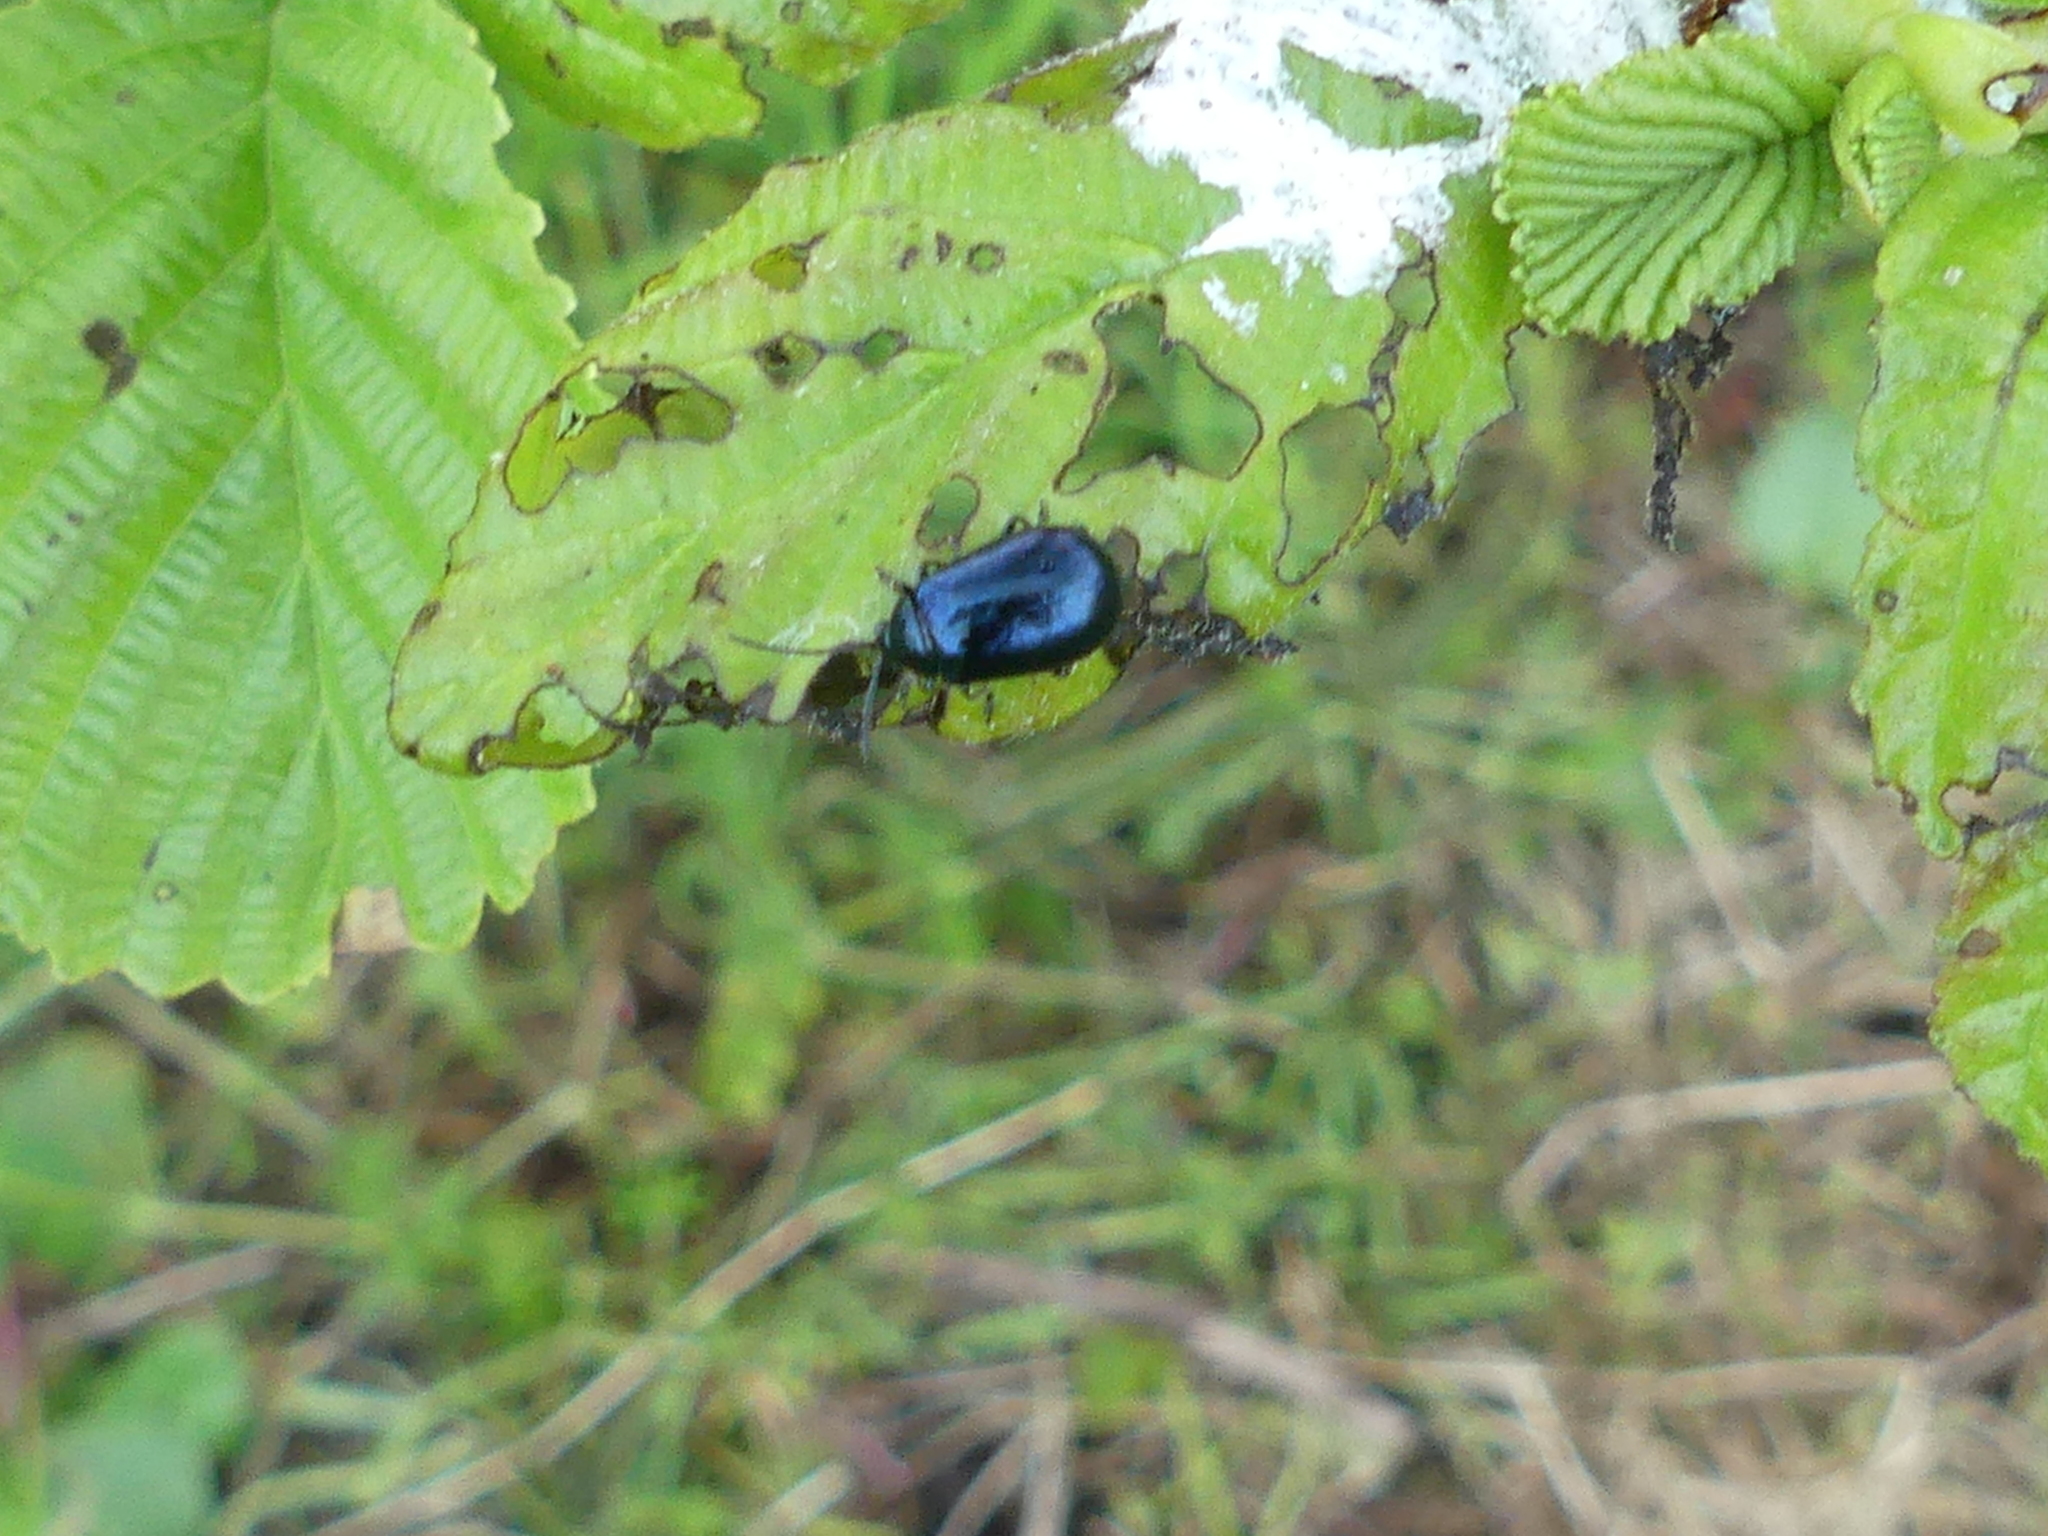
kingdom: Animalia
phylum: Arthropoda
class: Insecta
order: Coleoptera
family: Chrysomelidae
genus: Agelastica
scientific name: Agelastica alni
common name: Alder leaf beetle
